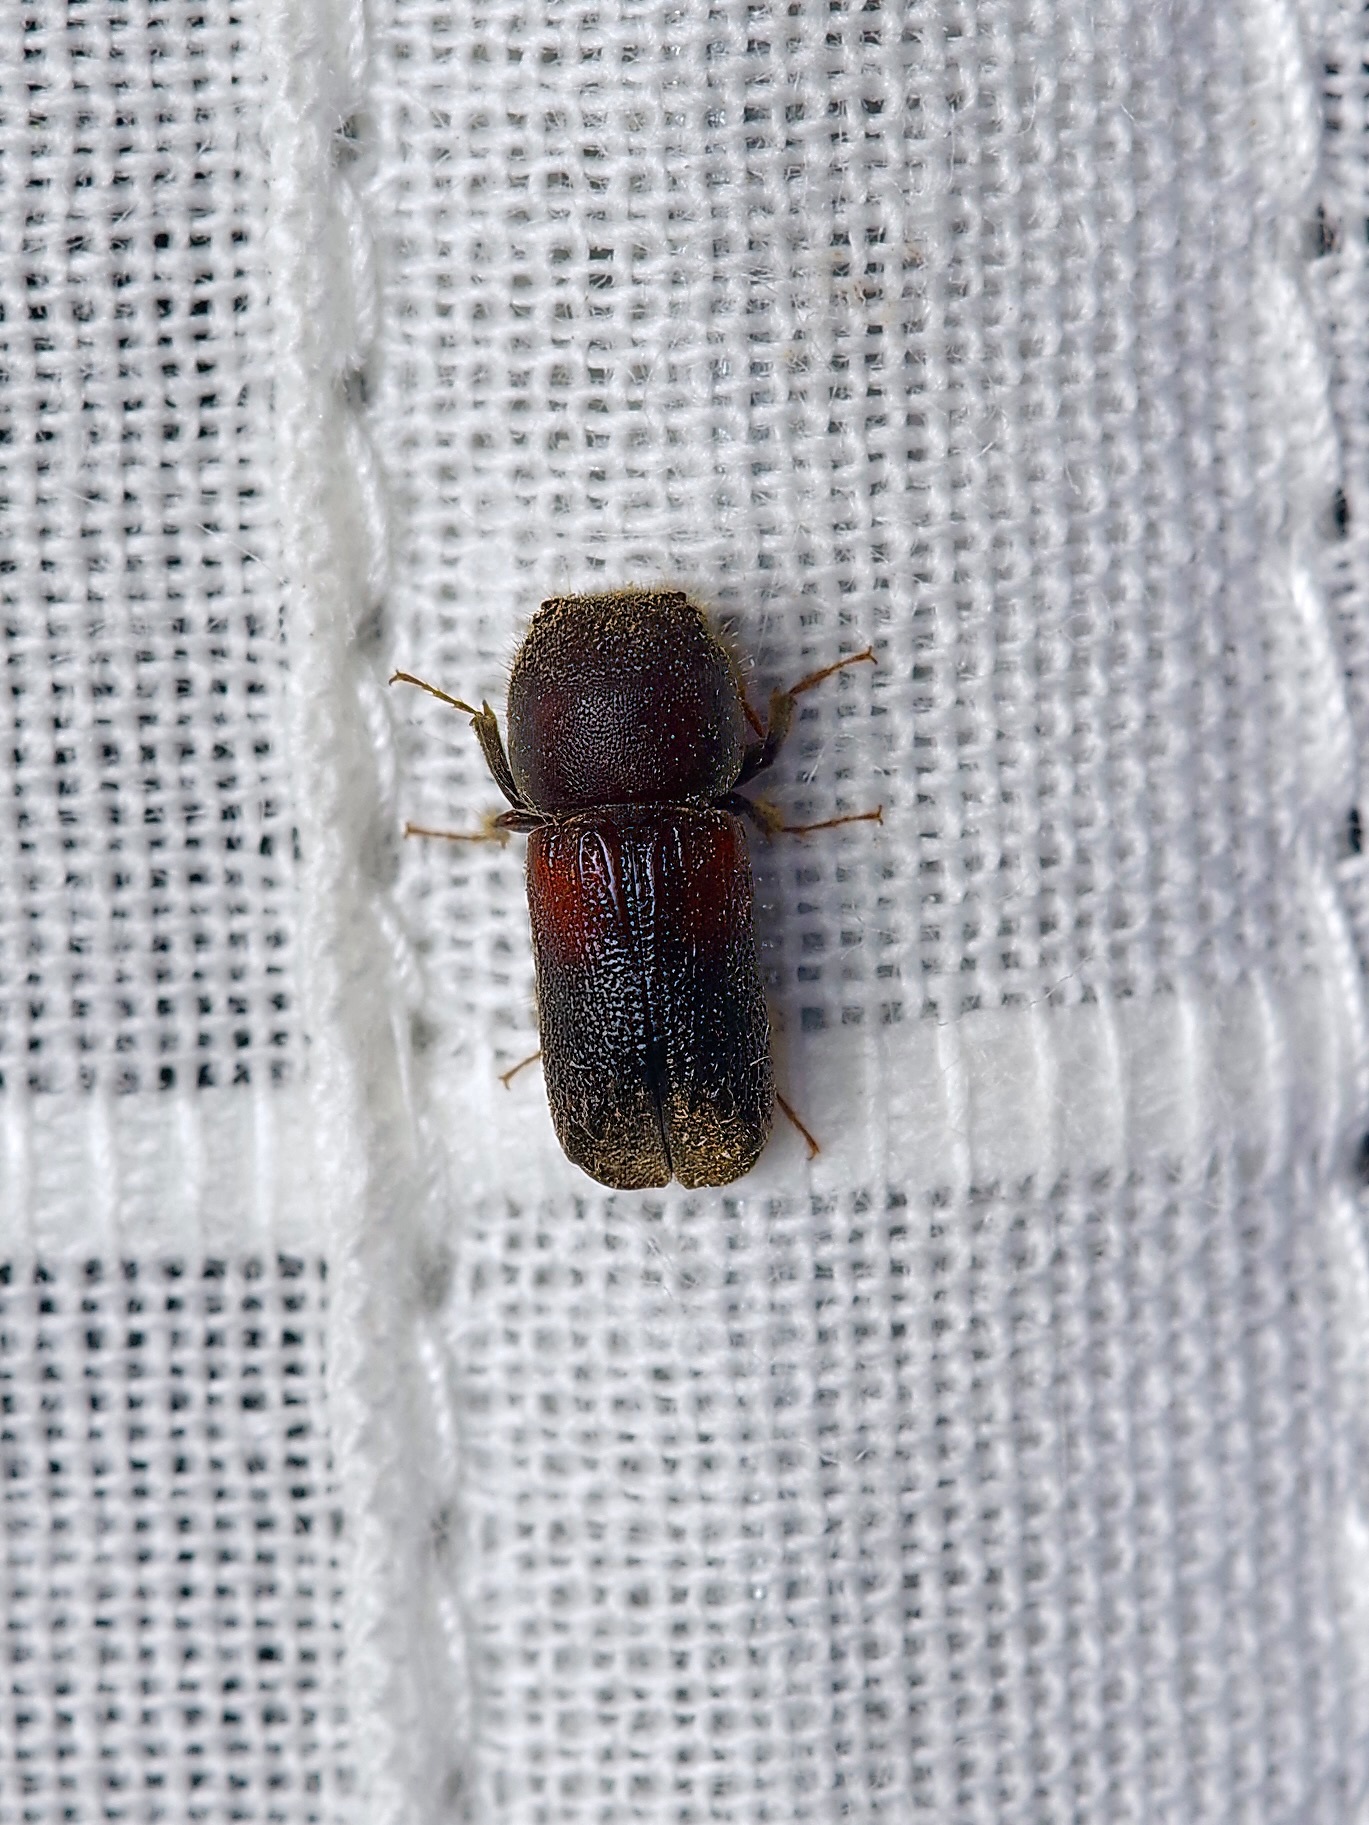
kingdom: Animalia
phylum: Arthropoda
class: Insecta
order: Coleoptera
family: Bostrichidae
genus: Xylobiops
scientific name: Xylobiops basilaris
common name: Red-shouldered bostrichid
